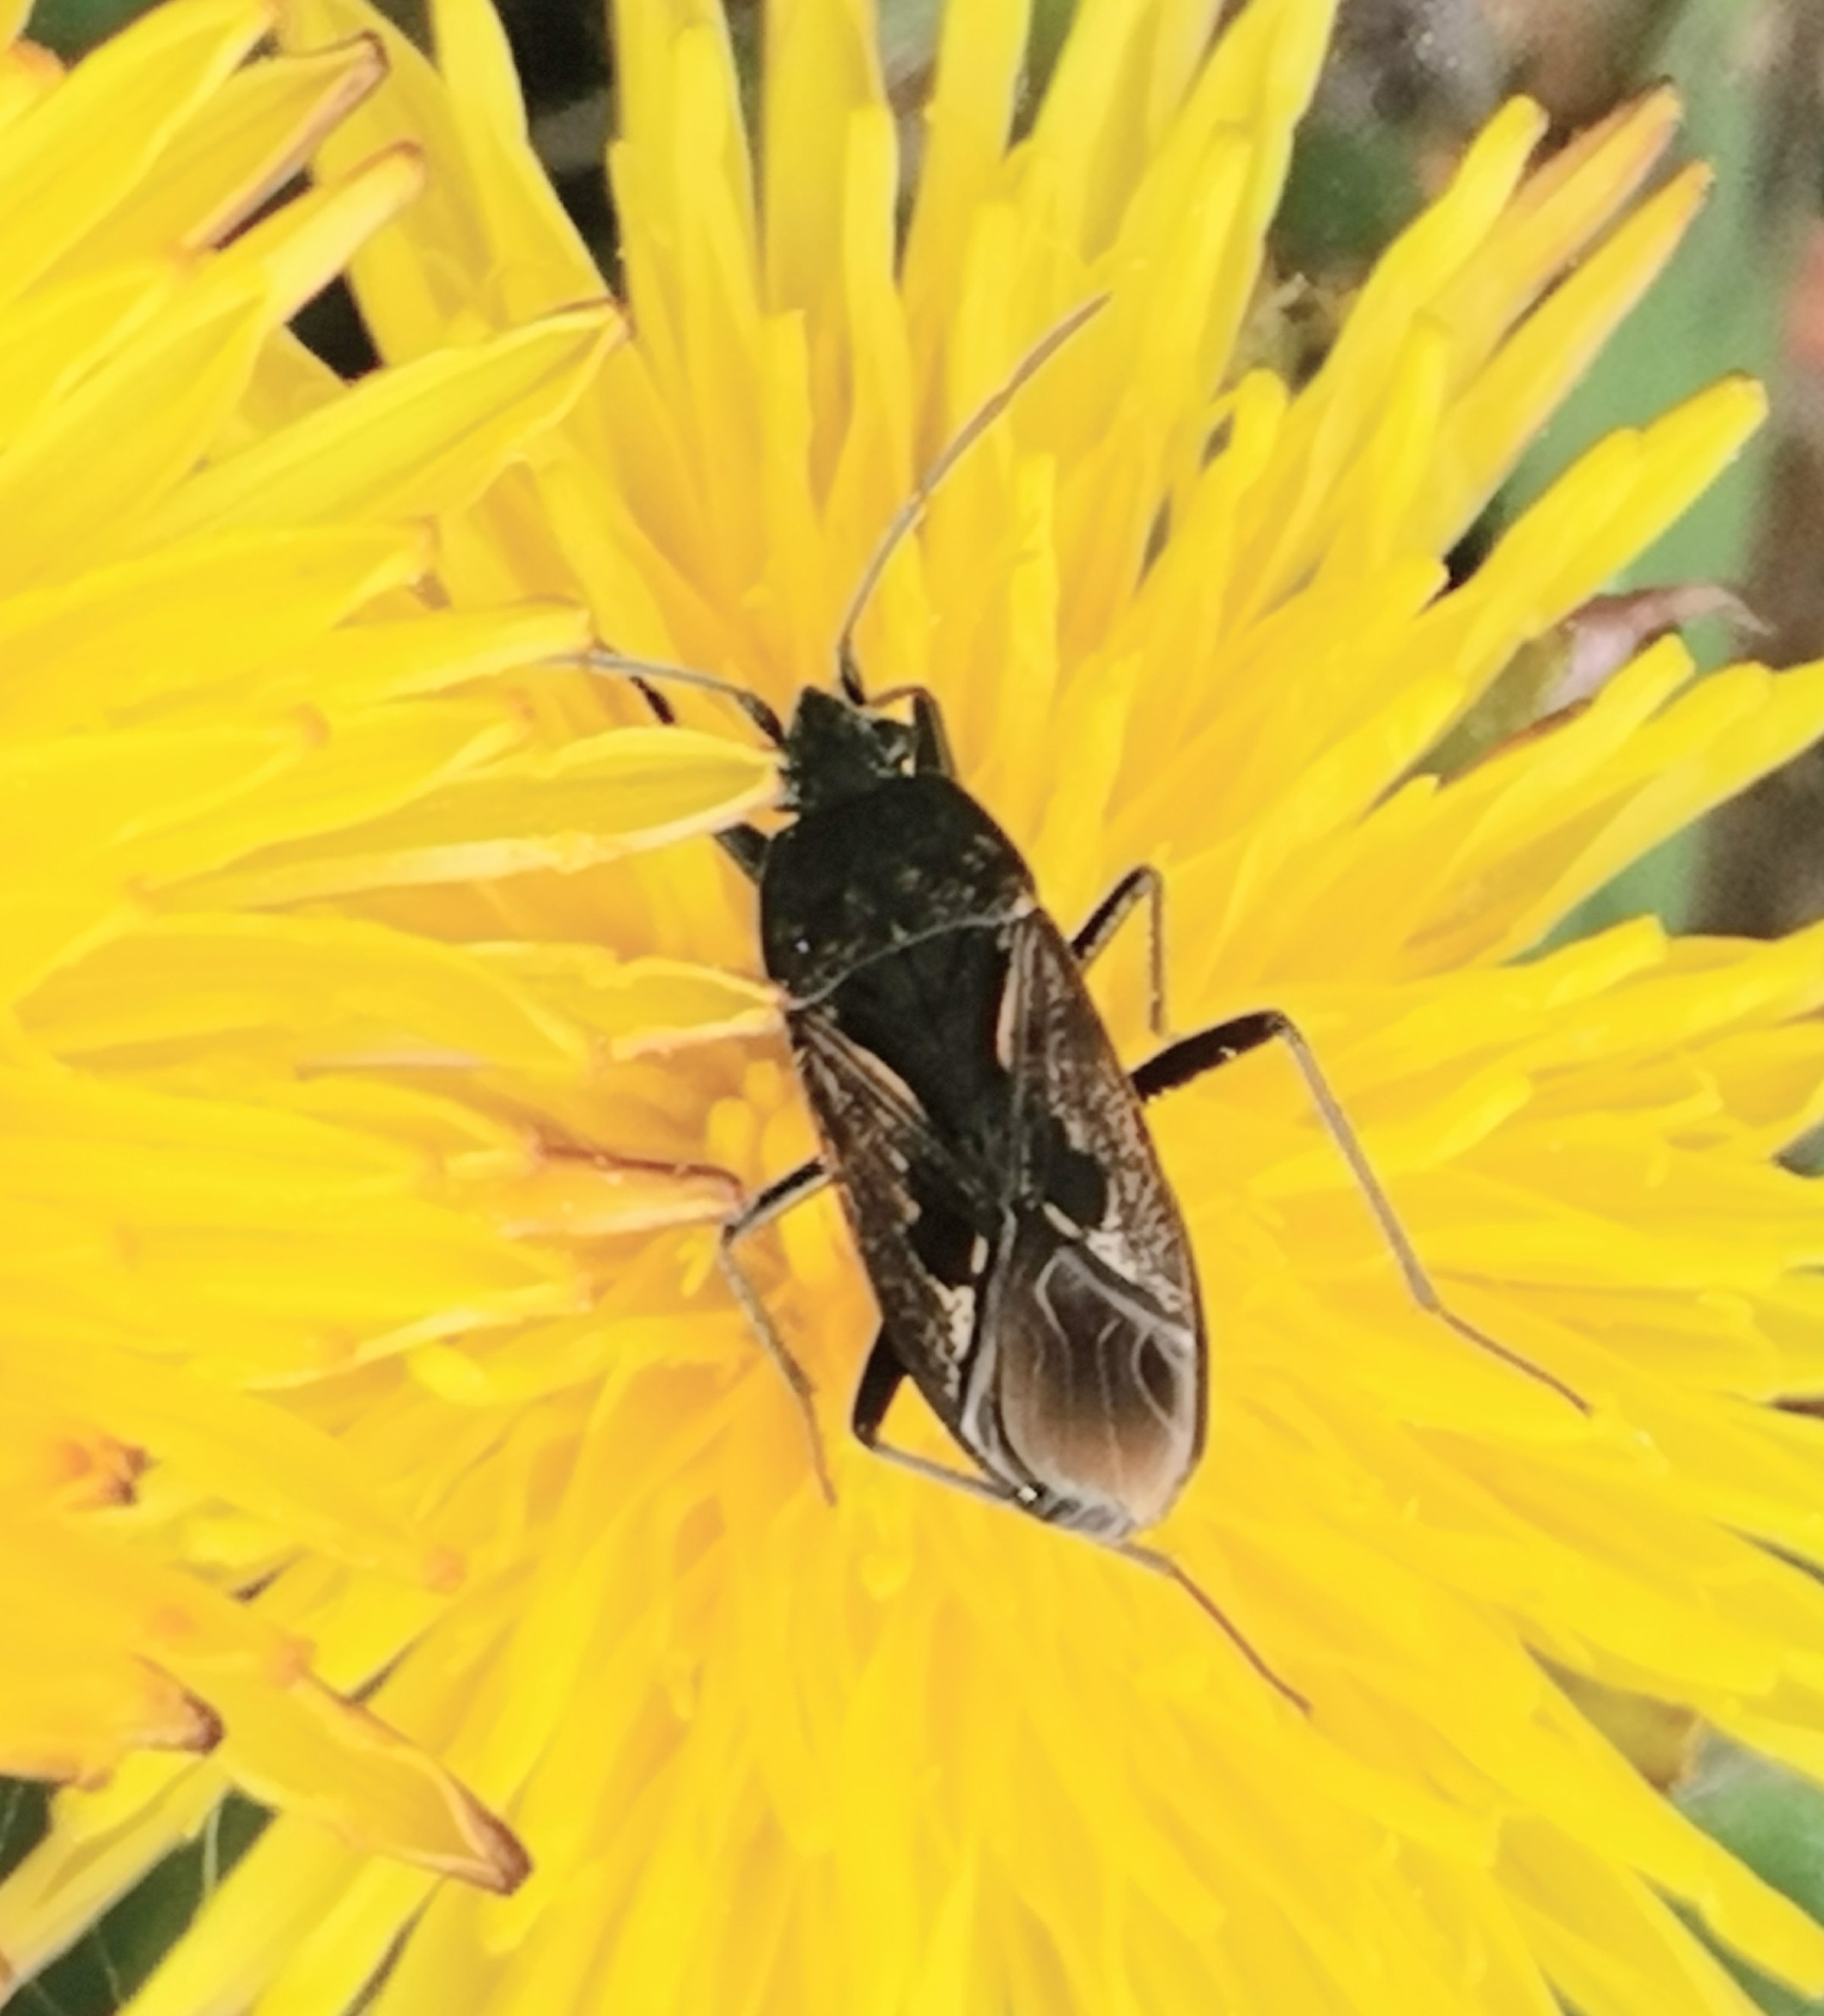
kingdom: Animalia
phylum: Arthropoda
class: Insecta
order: Hemiptera
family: Rhyparochromidae
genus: Rhyparochromus
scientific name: Rhyparochromus pini
